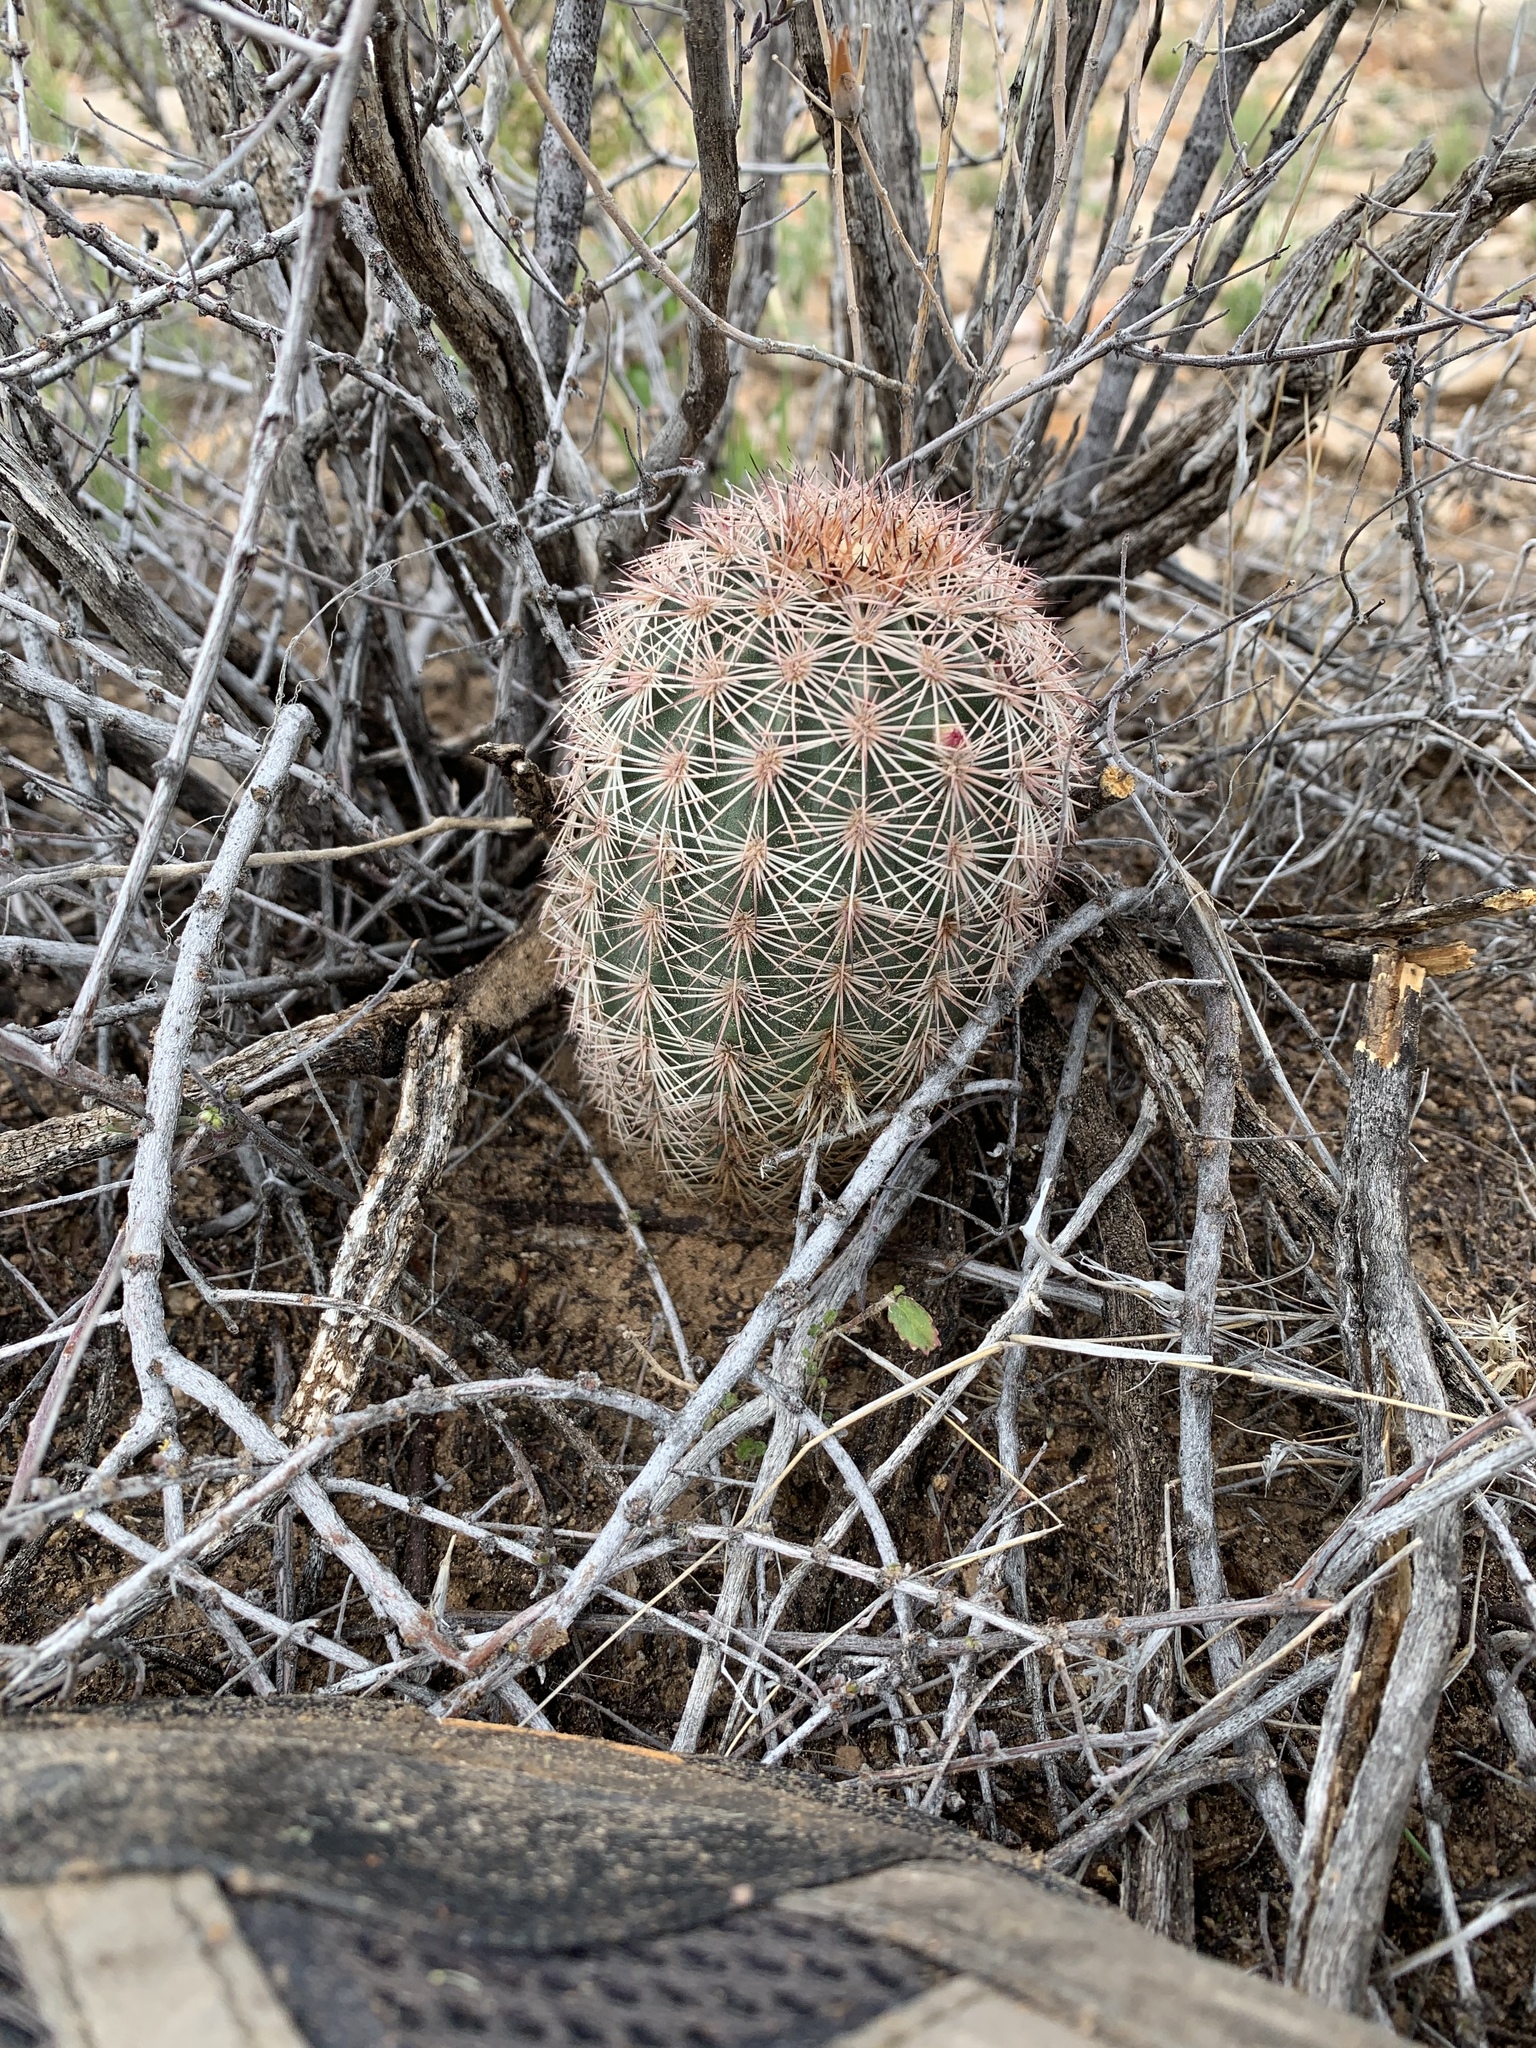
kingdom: Plantae
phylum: Tracheophyta
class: Magnoliopsida
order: Caryophyllales
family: Cactaceae
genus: Echinocereus
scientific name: Echinocereus dasyacanthus
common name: Spiny hedgehog cactus
